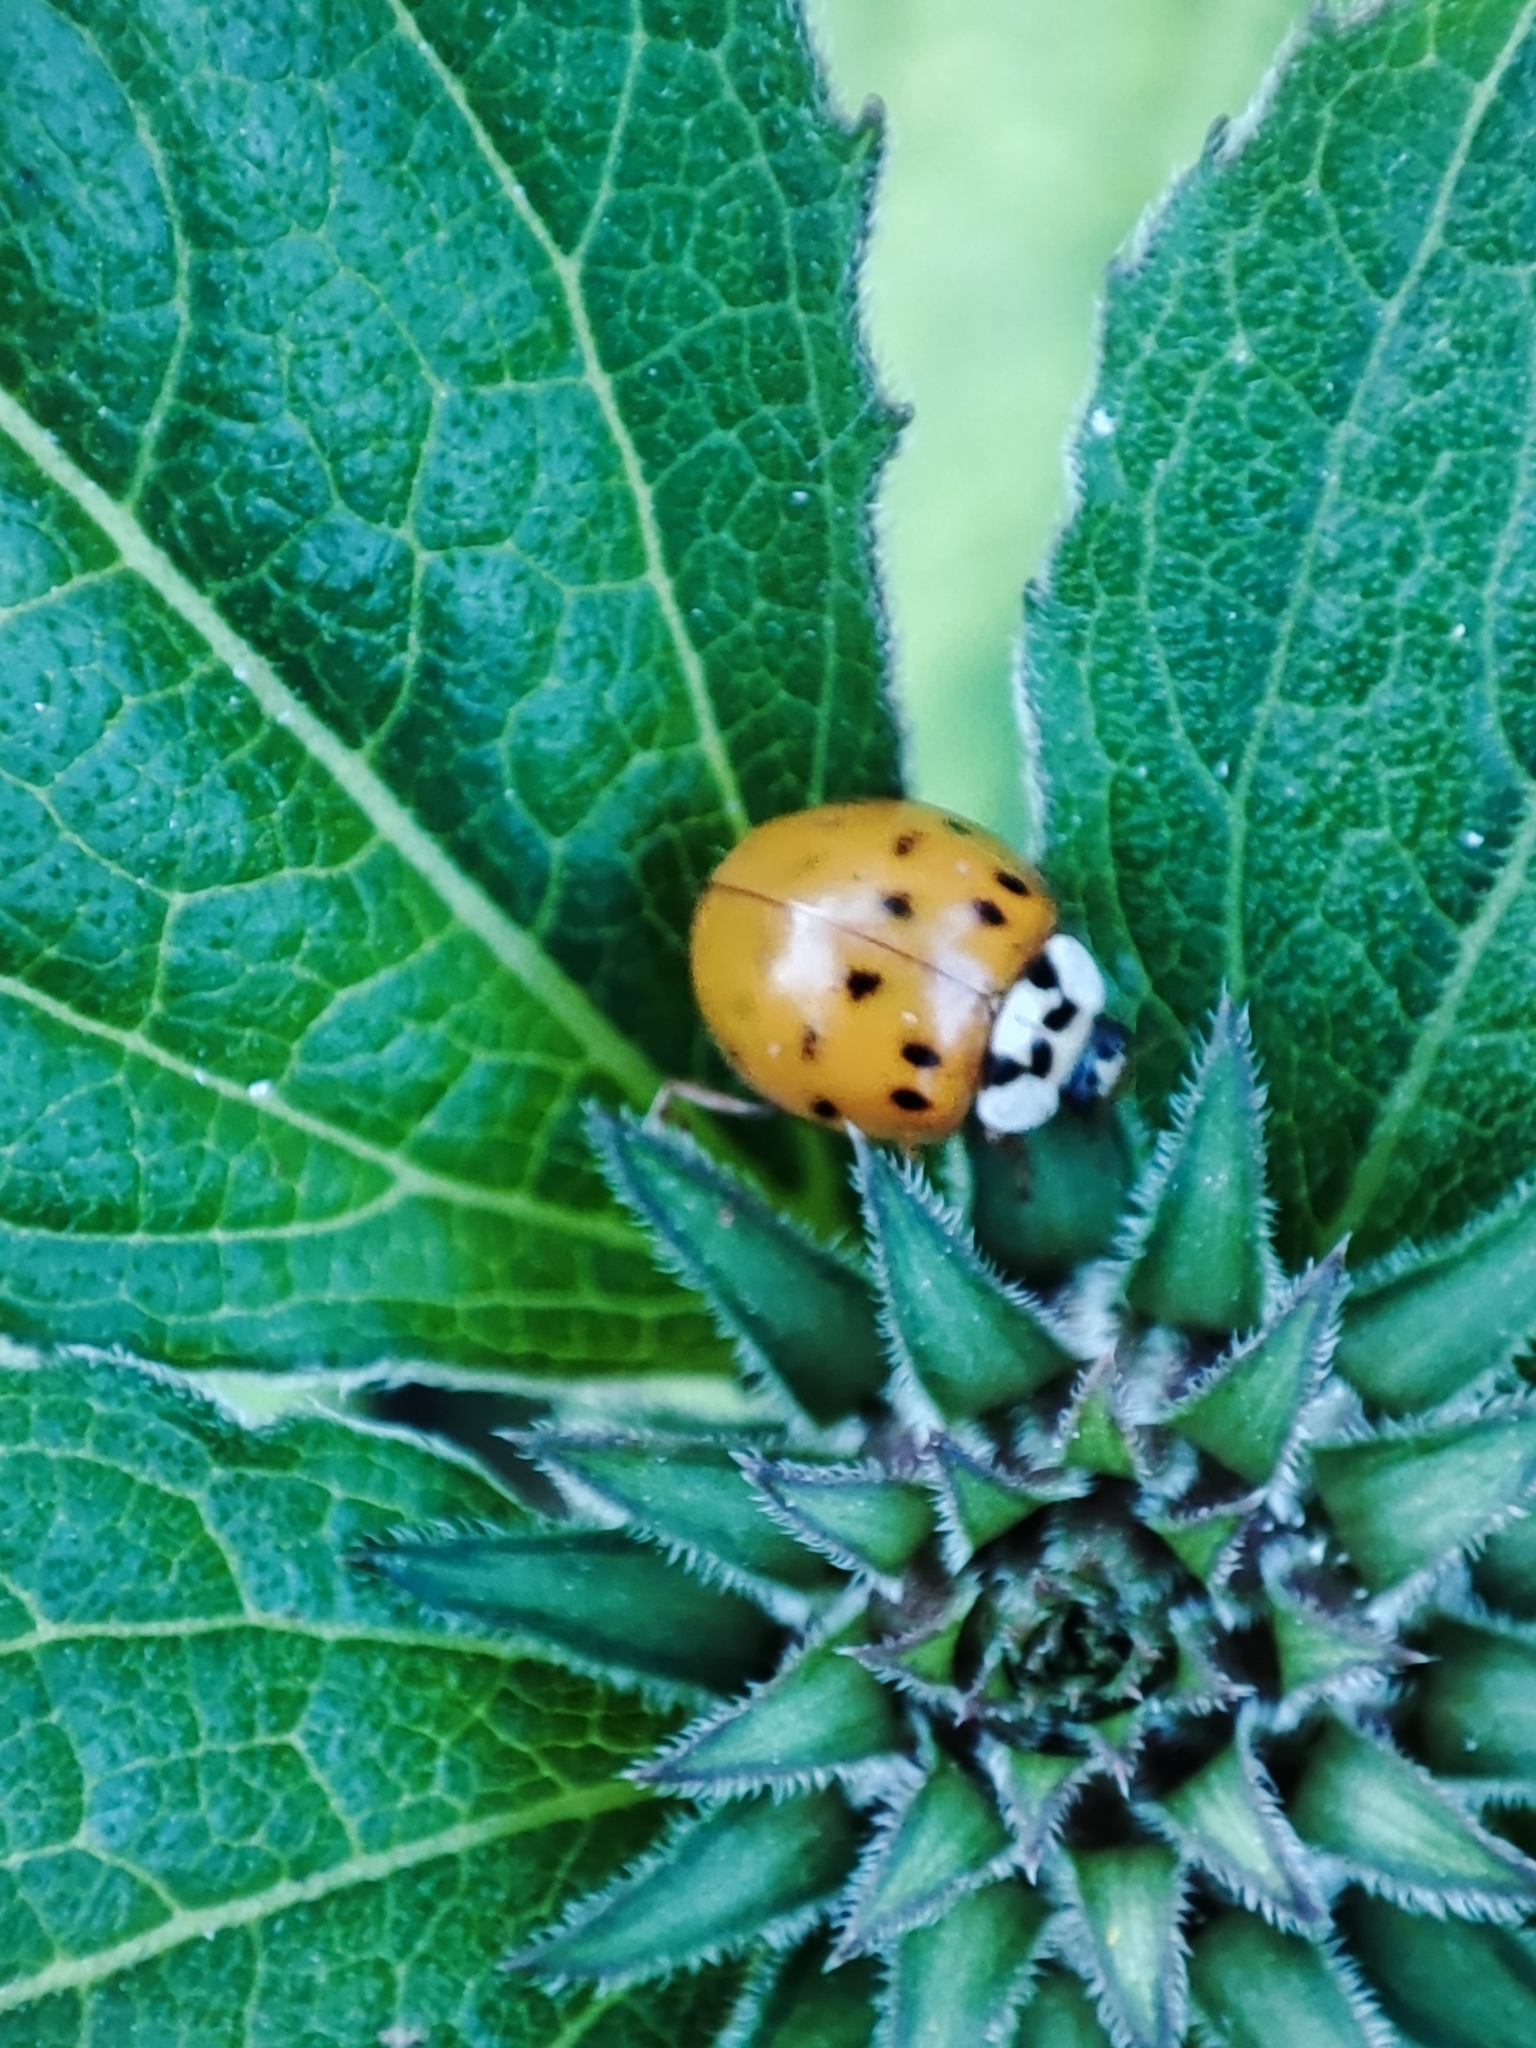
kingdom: Animalia
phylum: Arthropoda
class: Insecta
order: Coleoptera
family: Coccinellidae
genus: Harmonia
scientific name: Harmonia axyridis
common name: Harlequin ladybird
